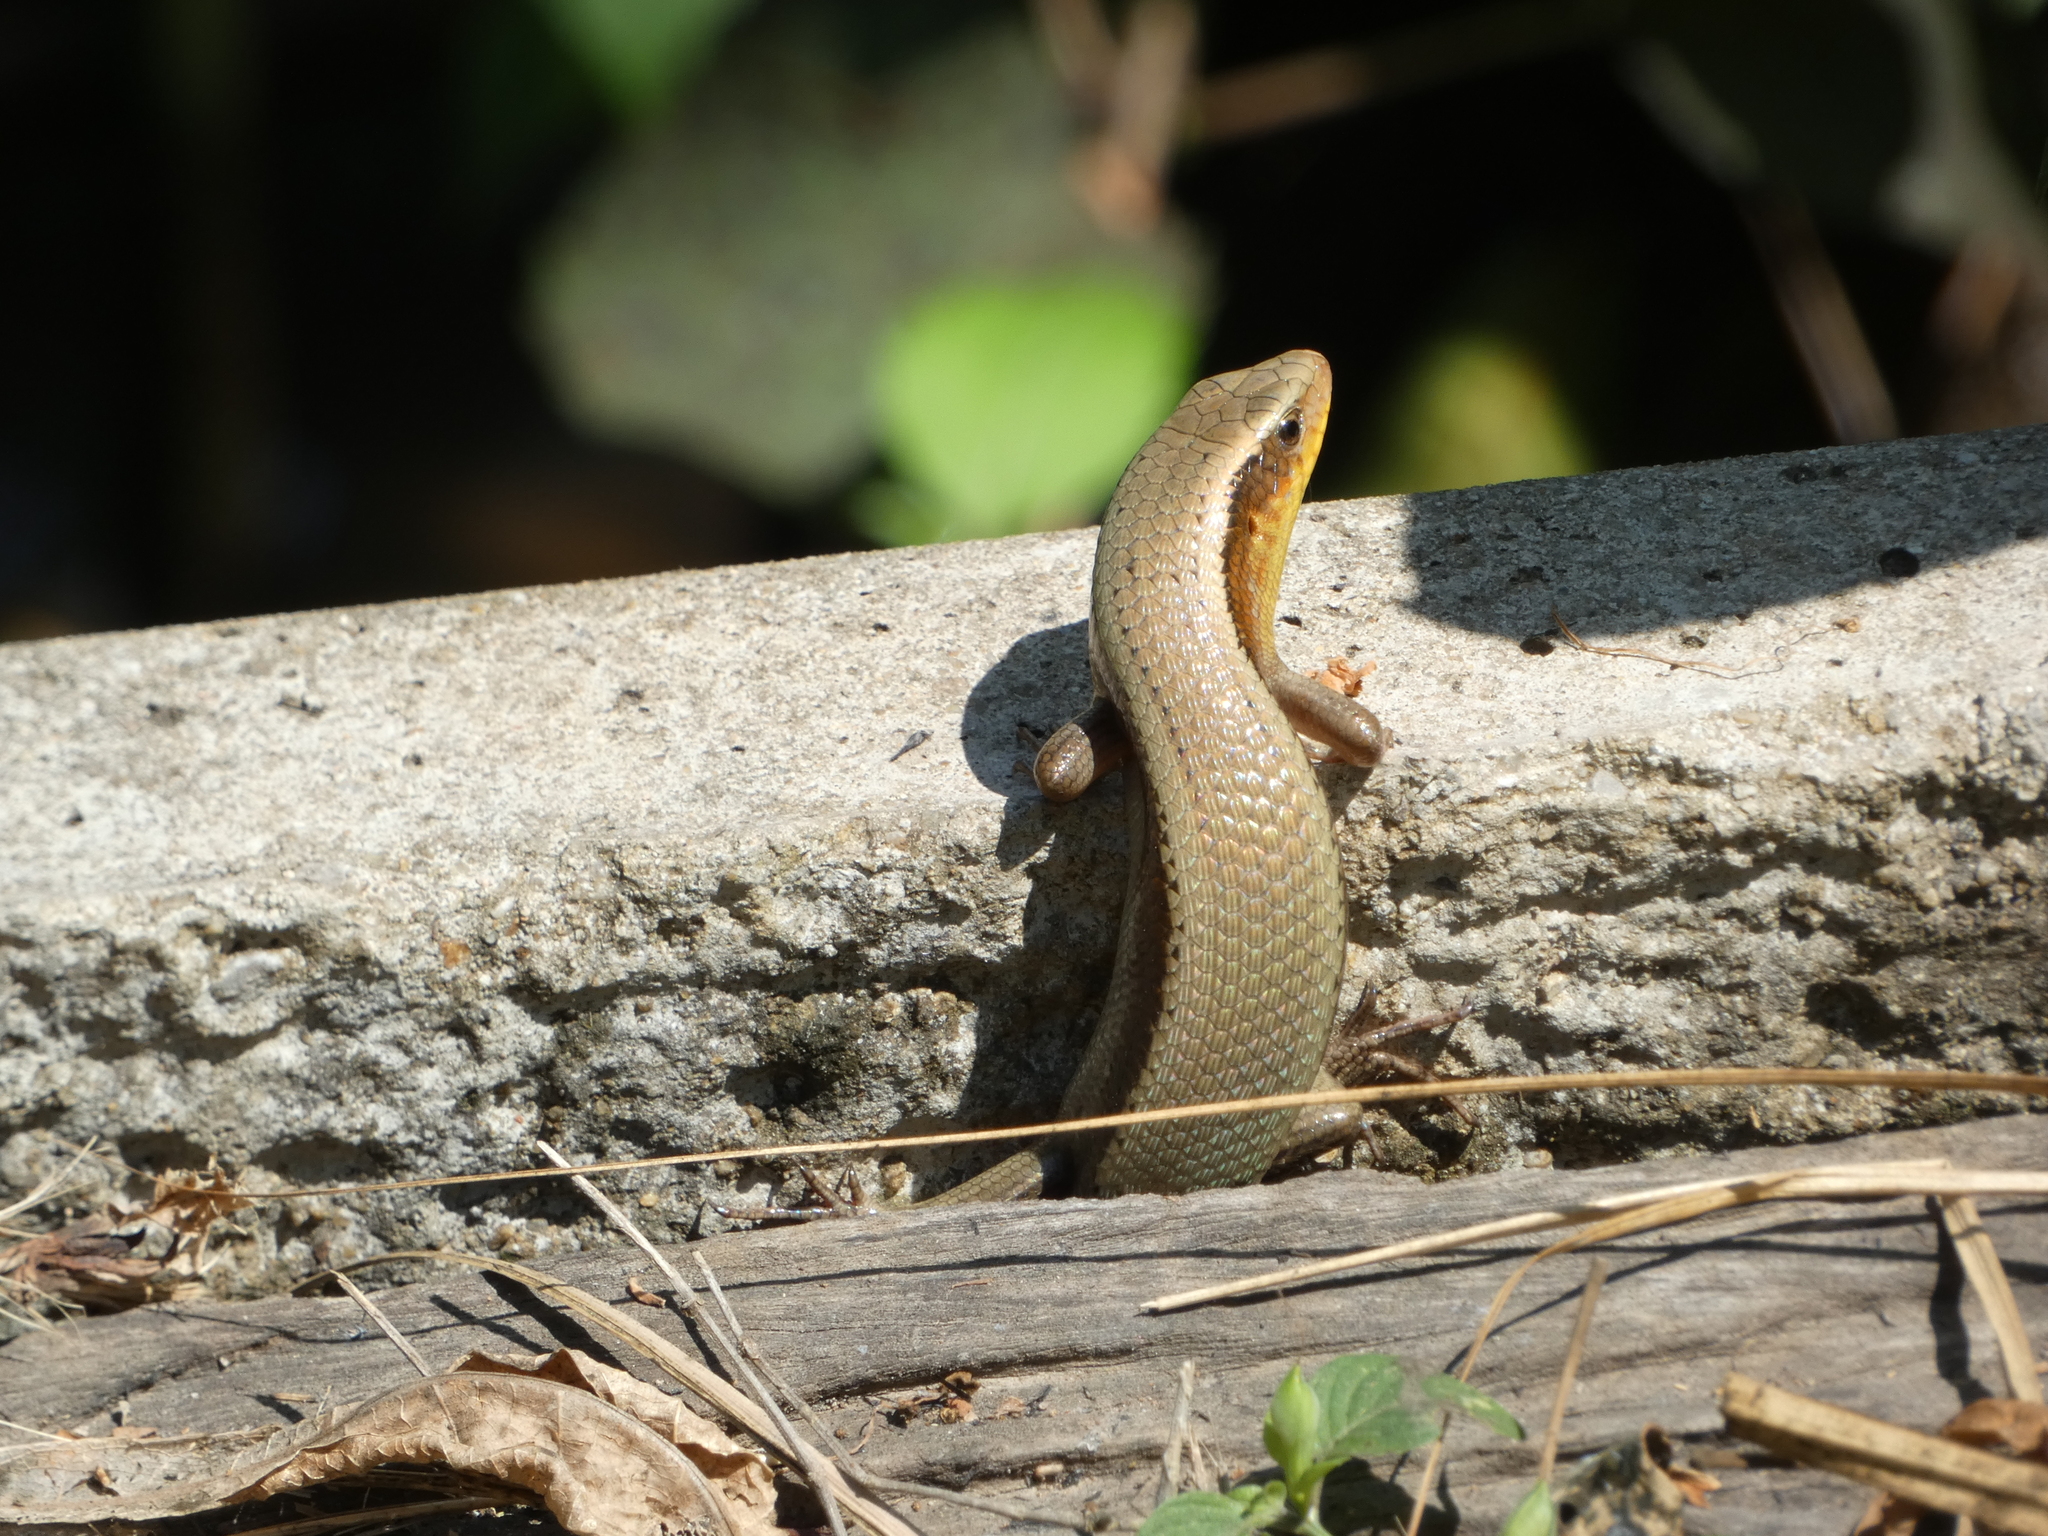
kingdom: Animalia
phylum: Chordata
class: Squamata
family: Scincidae
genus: Eutropis
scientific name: Eutropis multifasciata
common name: Common mabuya
